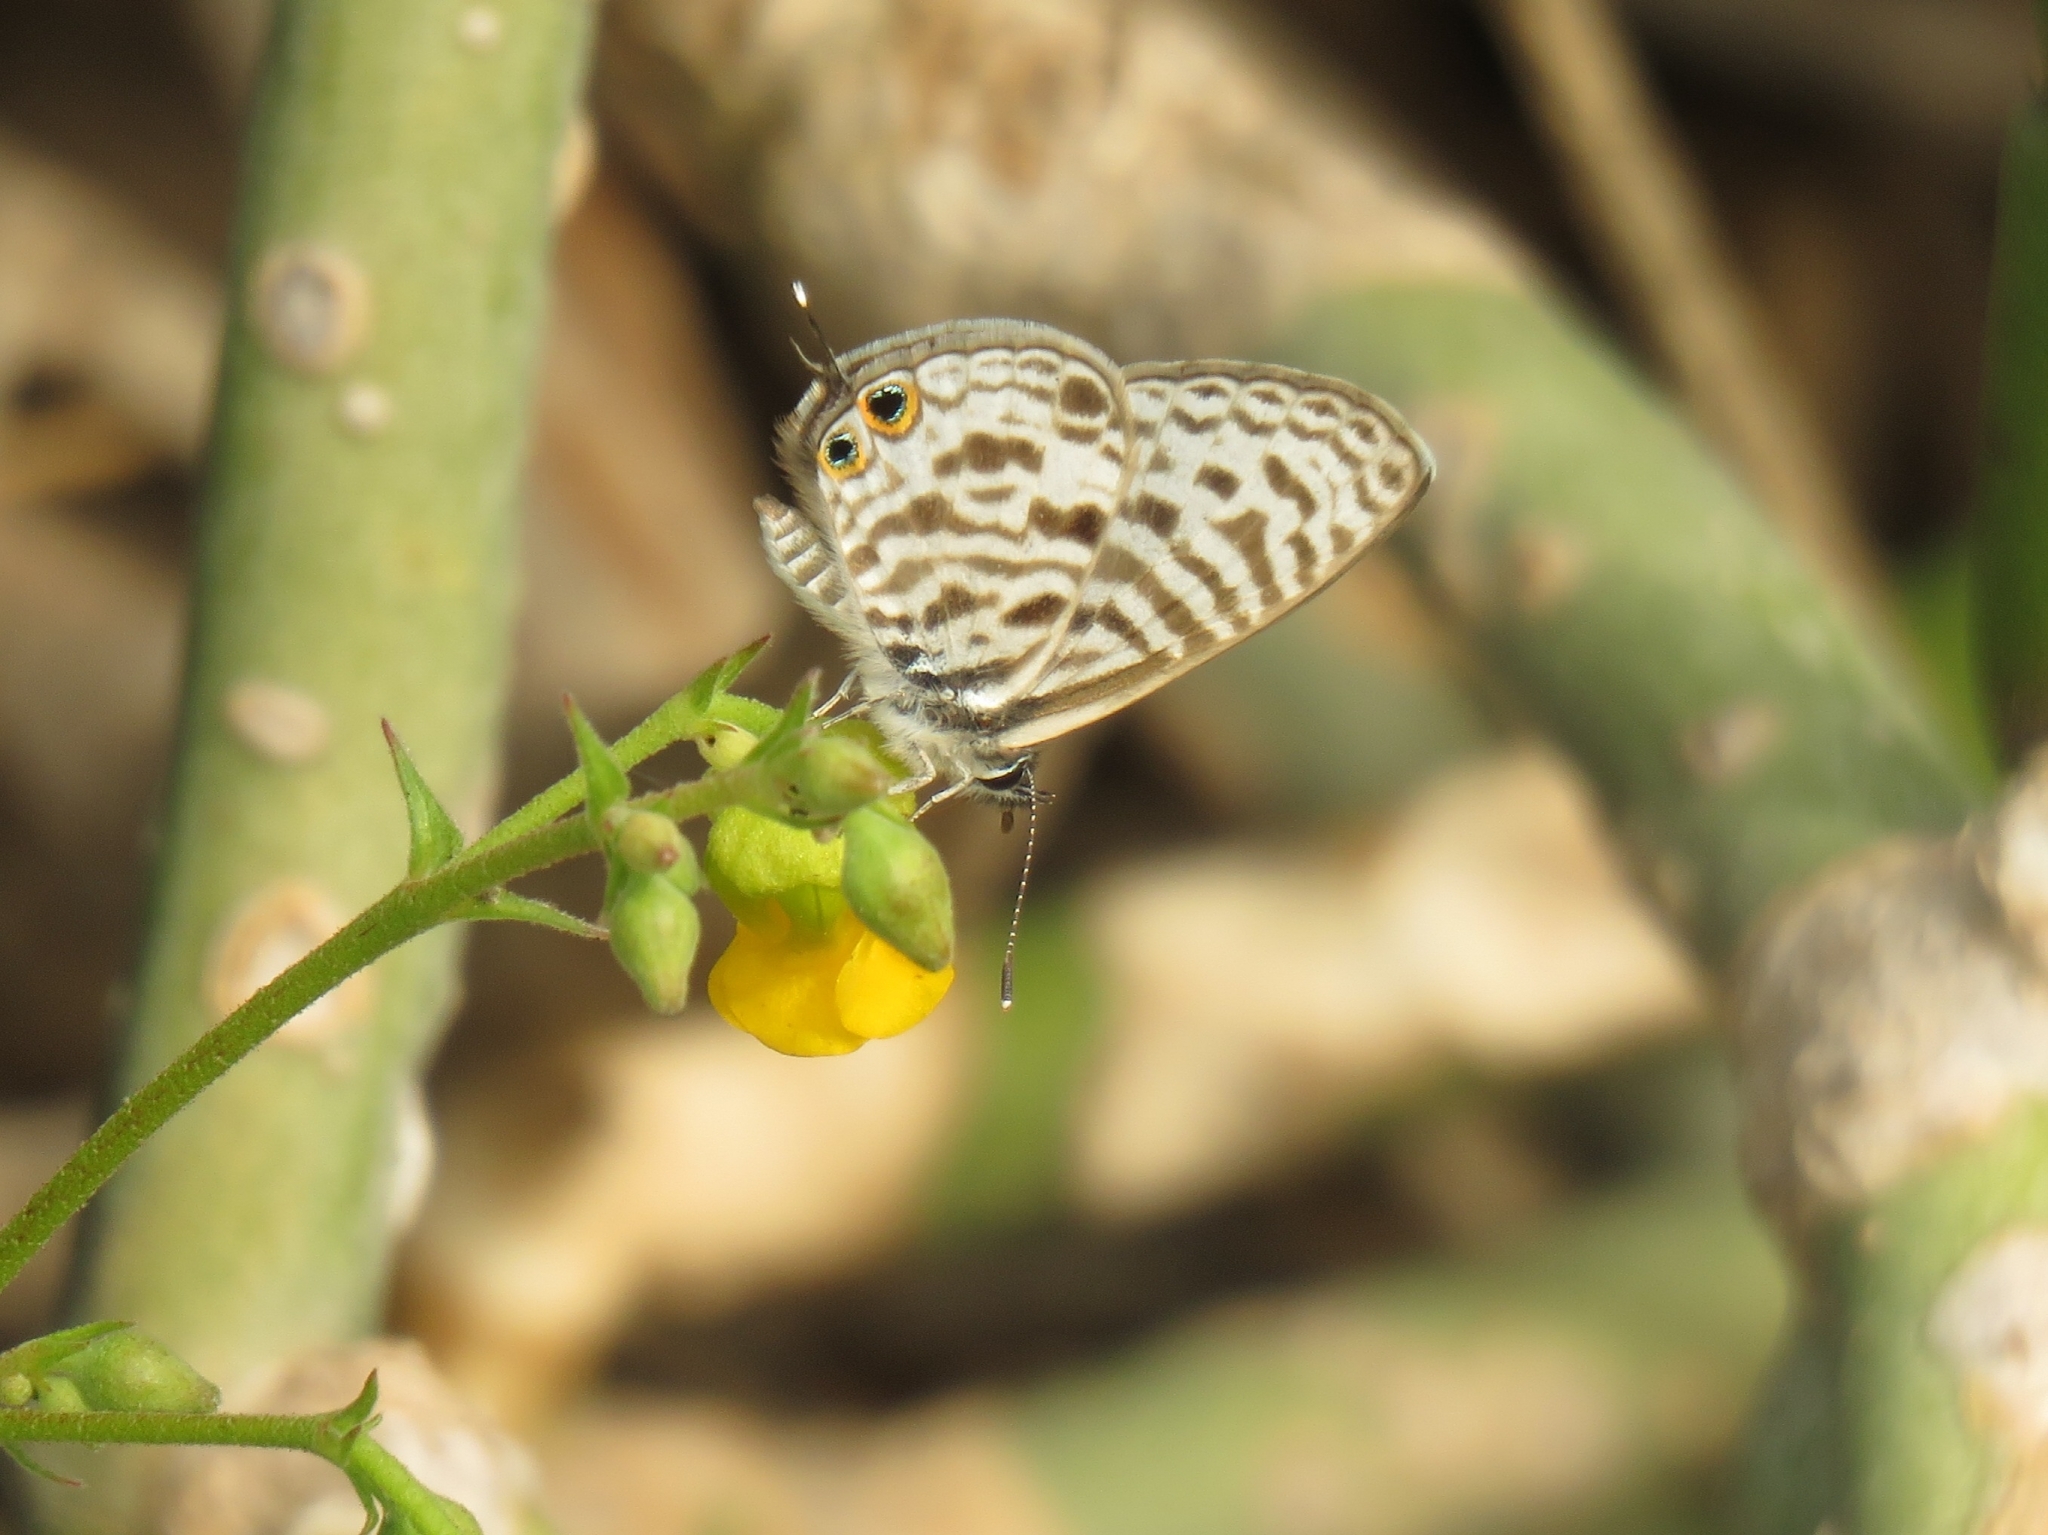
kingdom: Animalia
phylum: Arthropoda
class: Insecta
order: Lepidoptera
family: Lycaenidae
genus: Leptotes
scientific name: Leptotes
